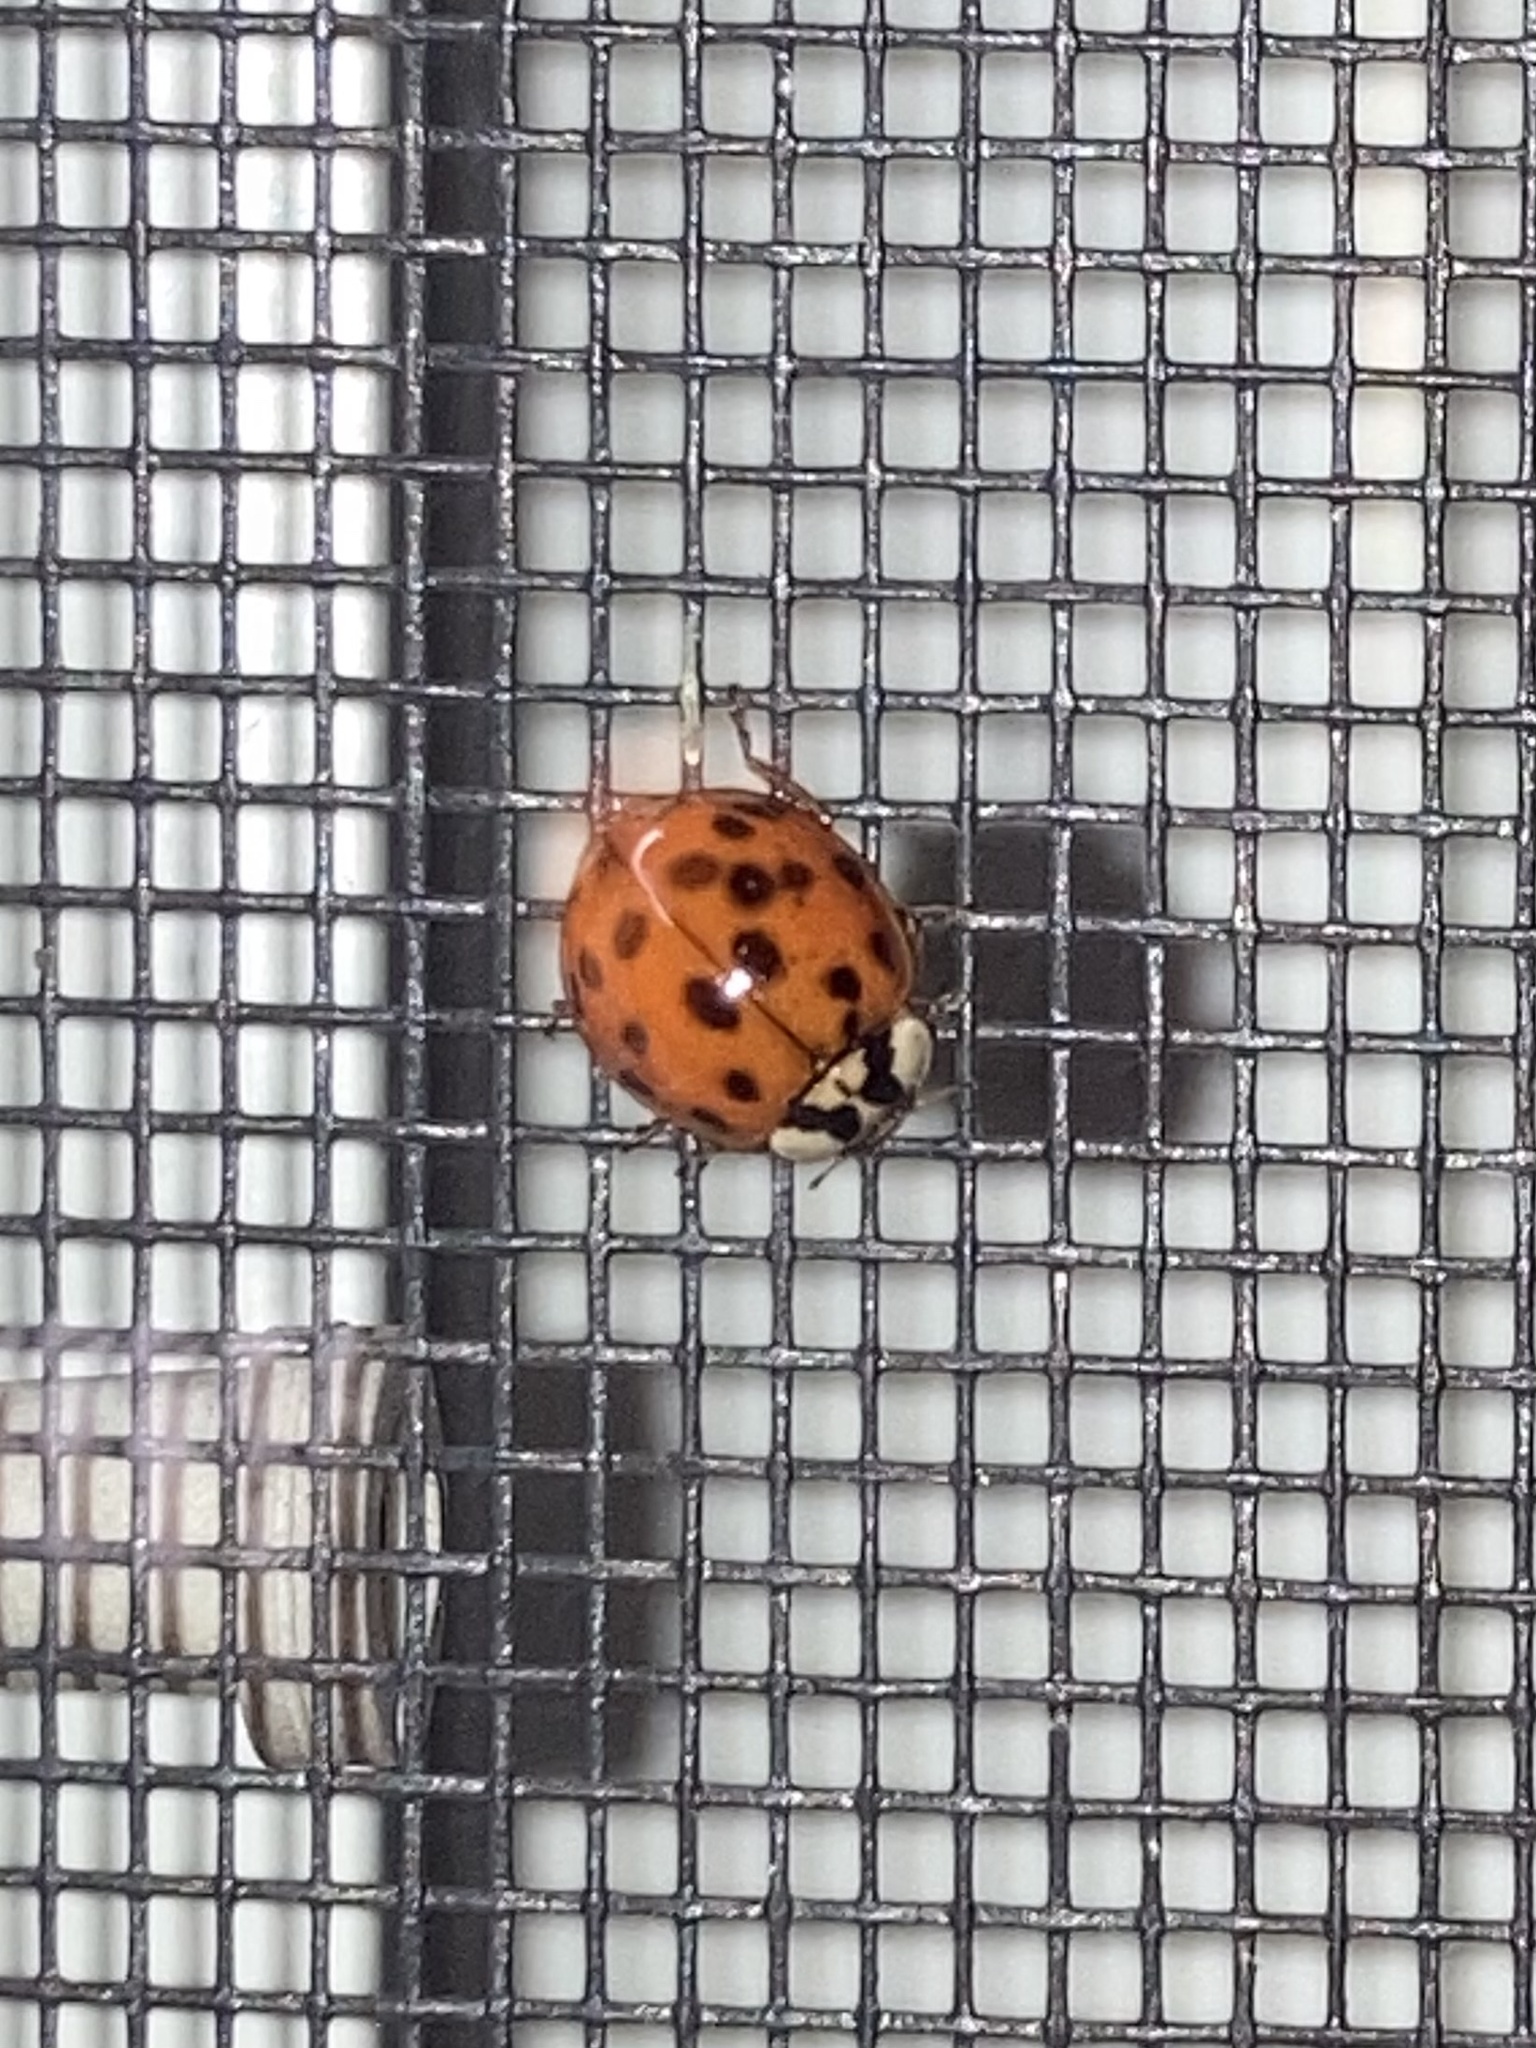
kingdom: Animalia
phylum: Arthropoda
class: Insecta
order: Coleoptera
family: Coccinellidae
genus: Harmonia
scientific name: Harmonia axyridis
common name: Harlequin ladybird
